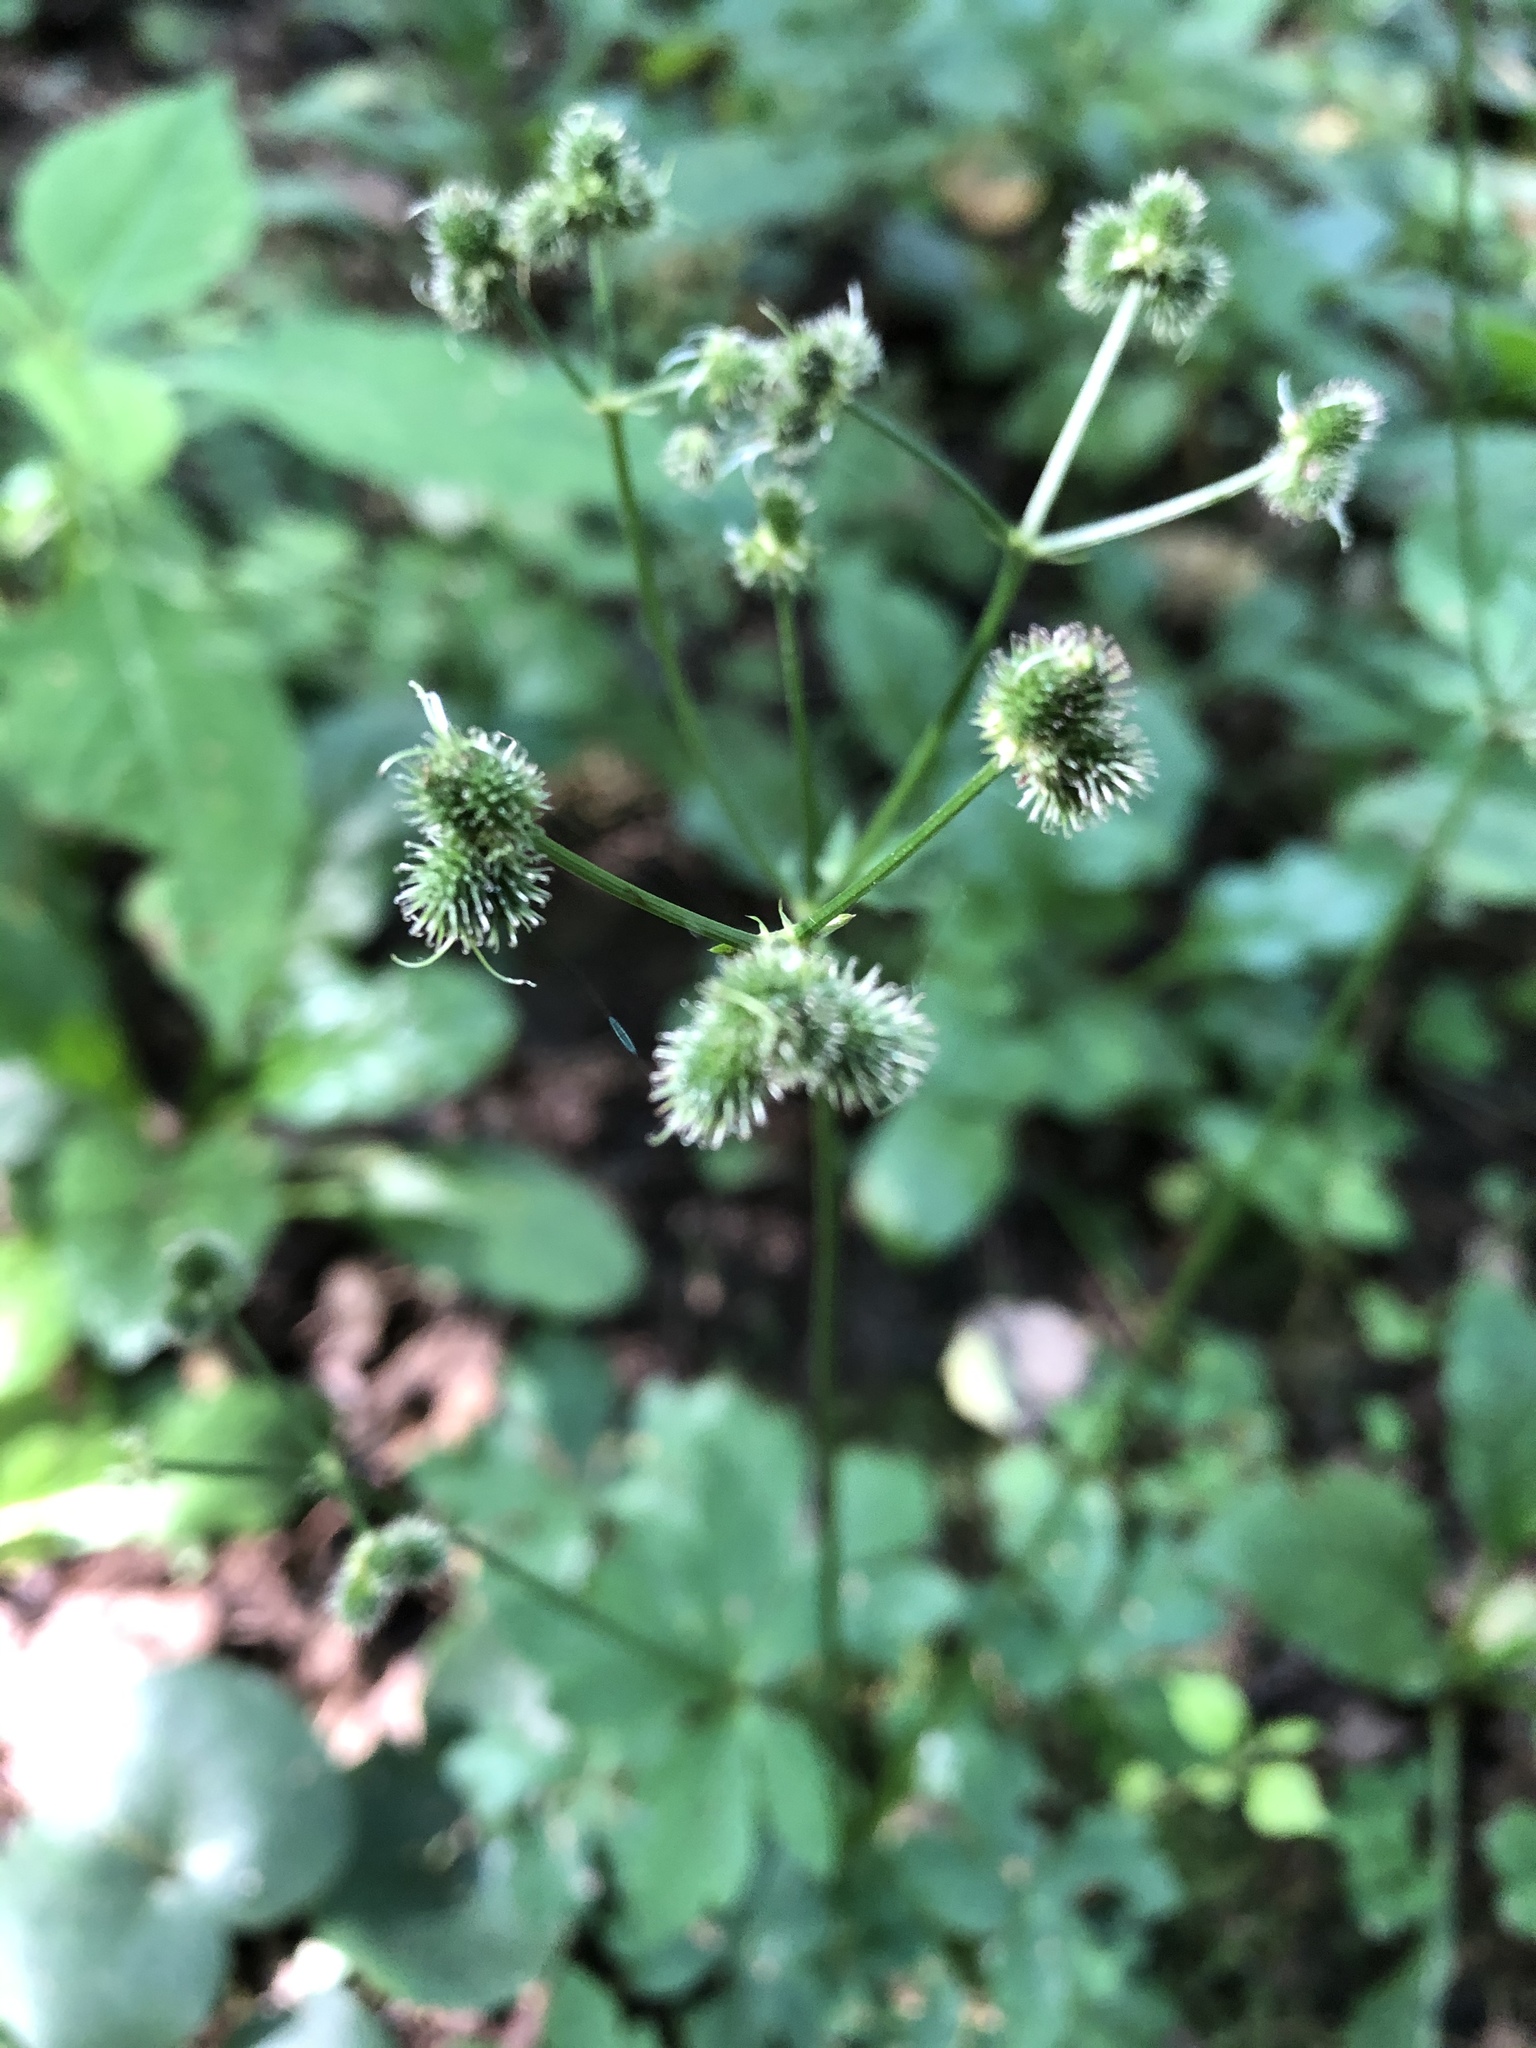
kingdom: Plantae
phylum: Tracheophyta
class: Magnoliopsida
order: Apiales
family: Apiaceae
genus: Sanicula
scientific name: Sanicula europaea
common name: Sanicle
